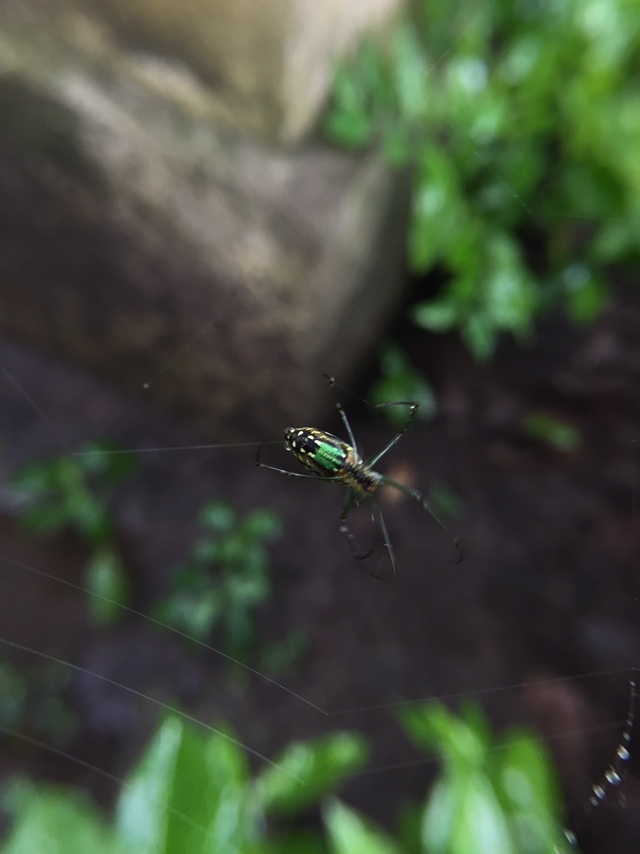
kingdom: Animalia
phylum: Arthropoda
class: Arachnida
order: Araneae
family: Tetragnathidae
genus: Leucauge
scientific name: Leucauge decorata
